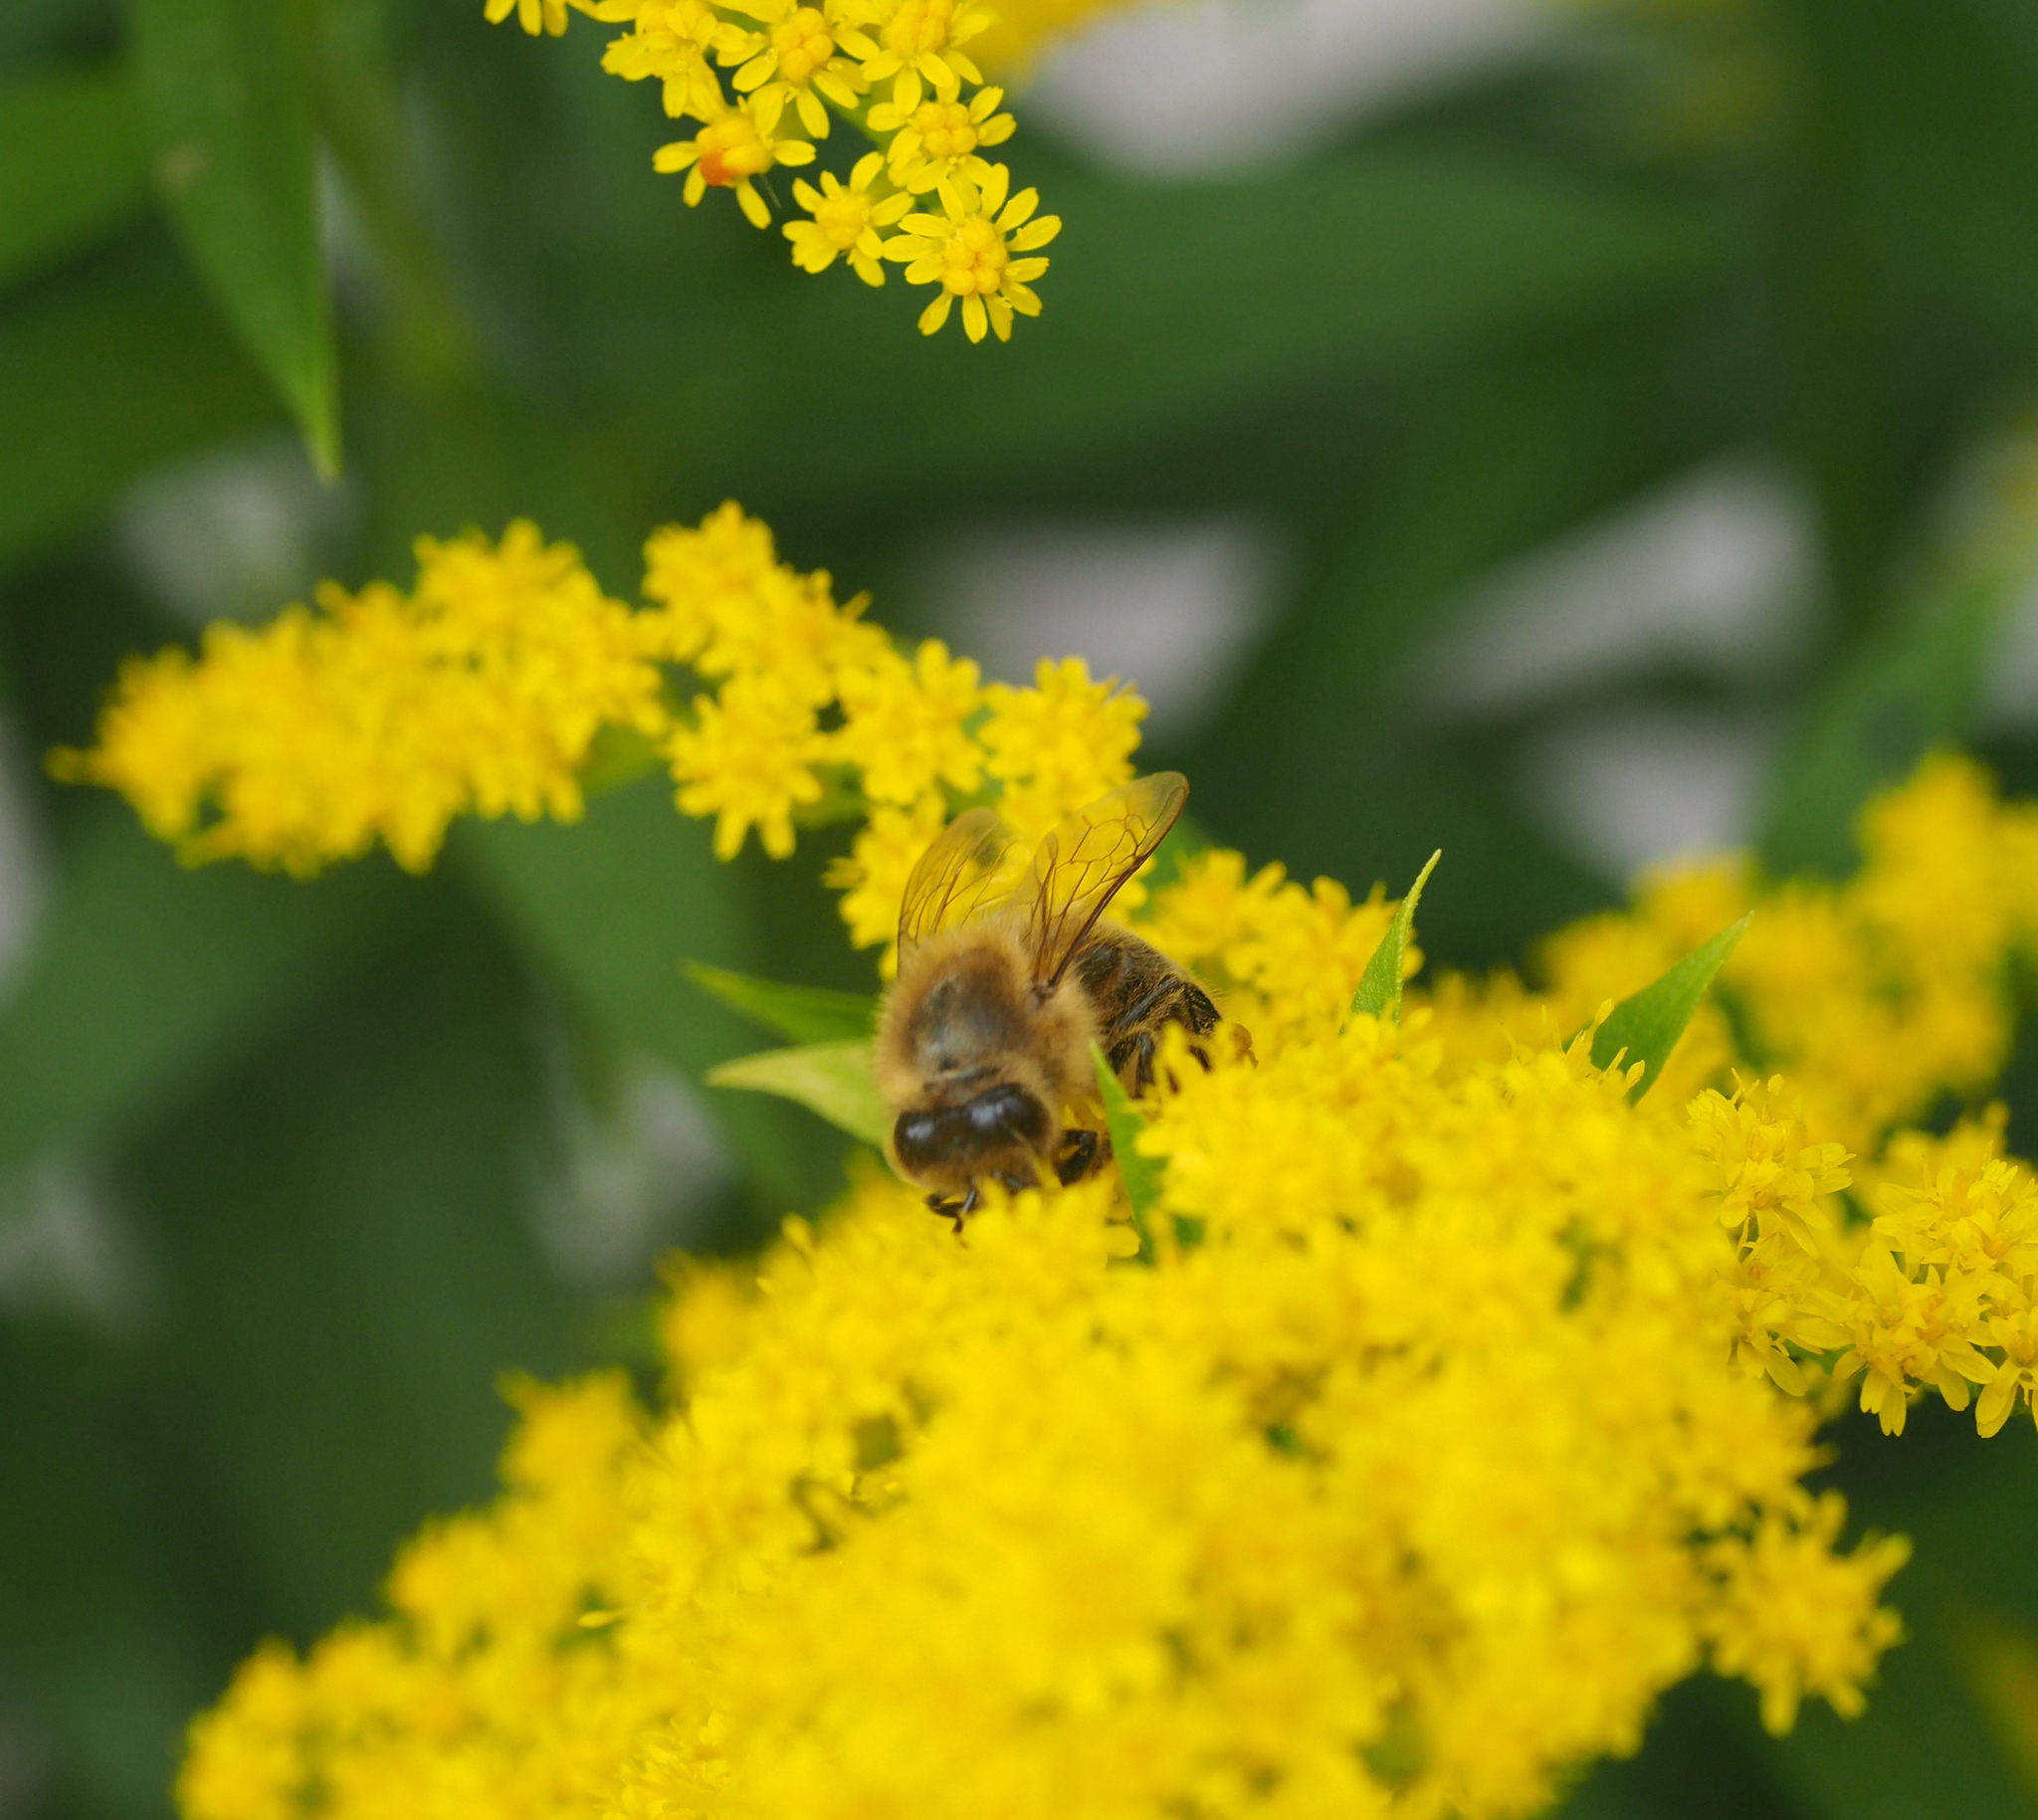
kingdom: Animalia
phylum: Arthropoda
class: Insecta
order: Hymenoptera
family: Apidae
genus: Apis
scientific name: Apis mellifera
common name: Honey bee
